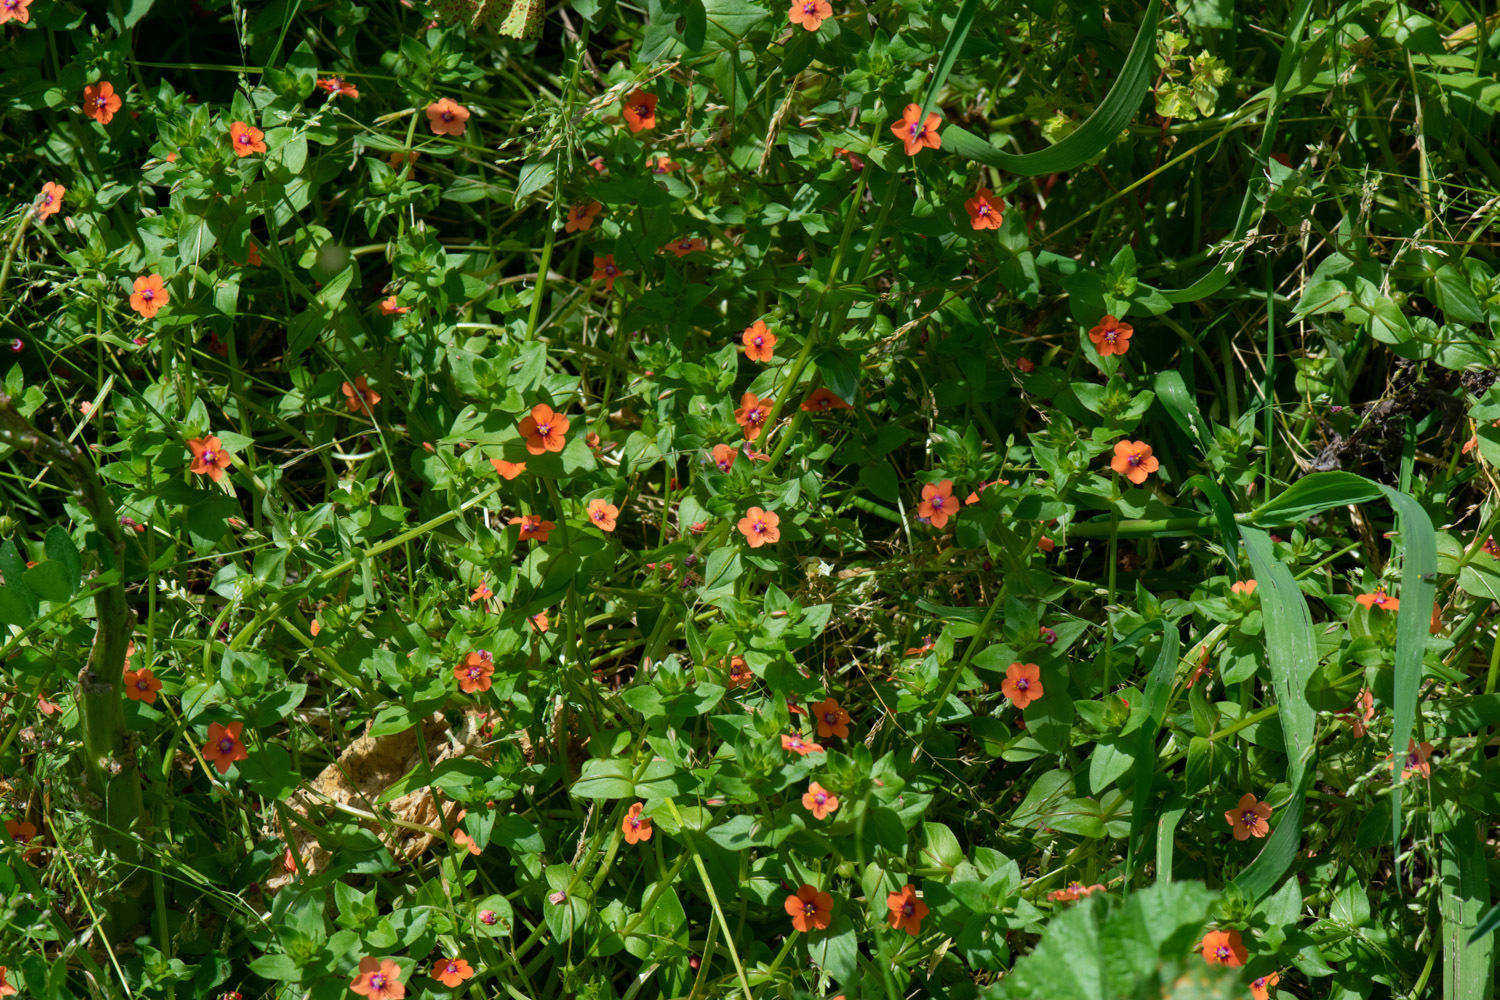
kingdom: Plantae
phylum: Tracheophyta
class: Magnoliopsida
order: Ericales
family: Primulaceae
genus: Lysimachia
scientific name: Lysimachia arvensis
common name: Scarlet pimpernel
